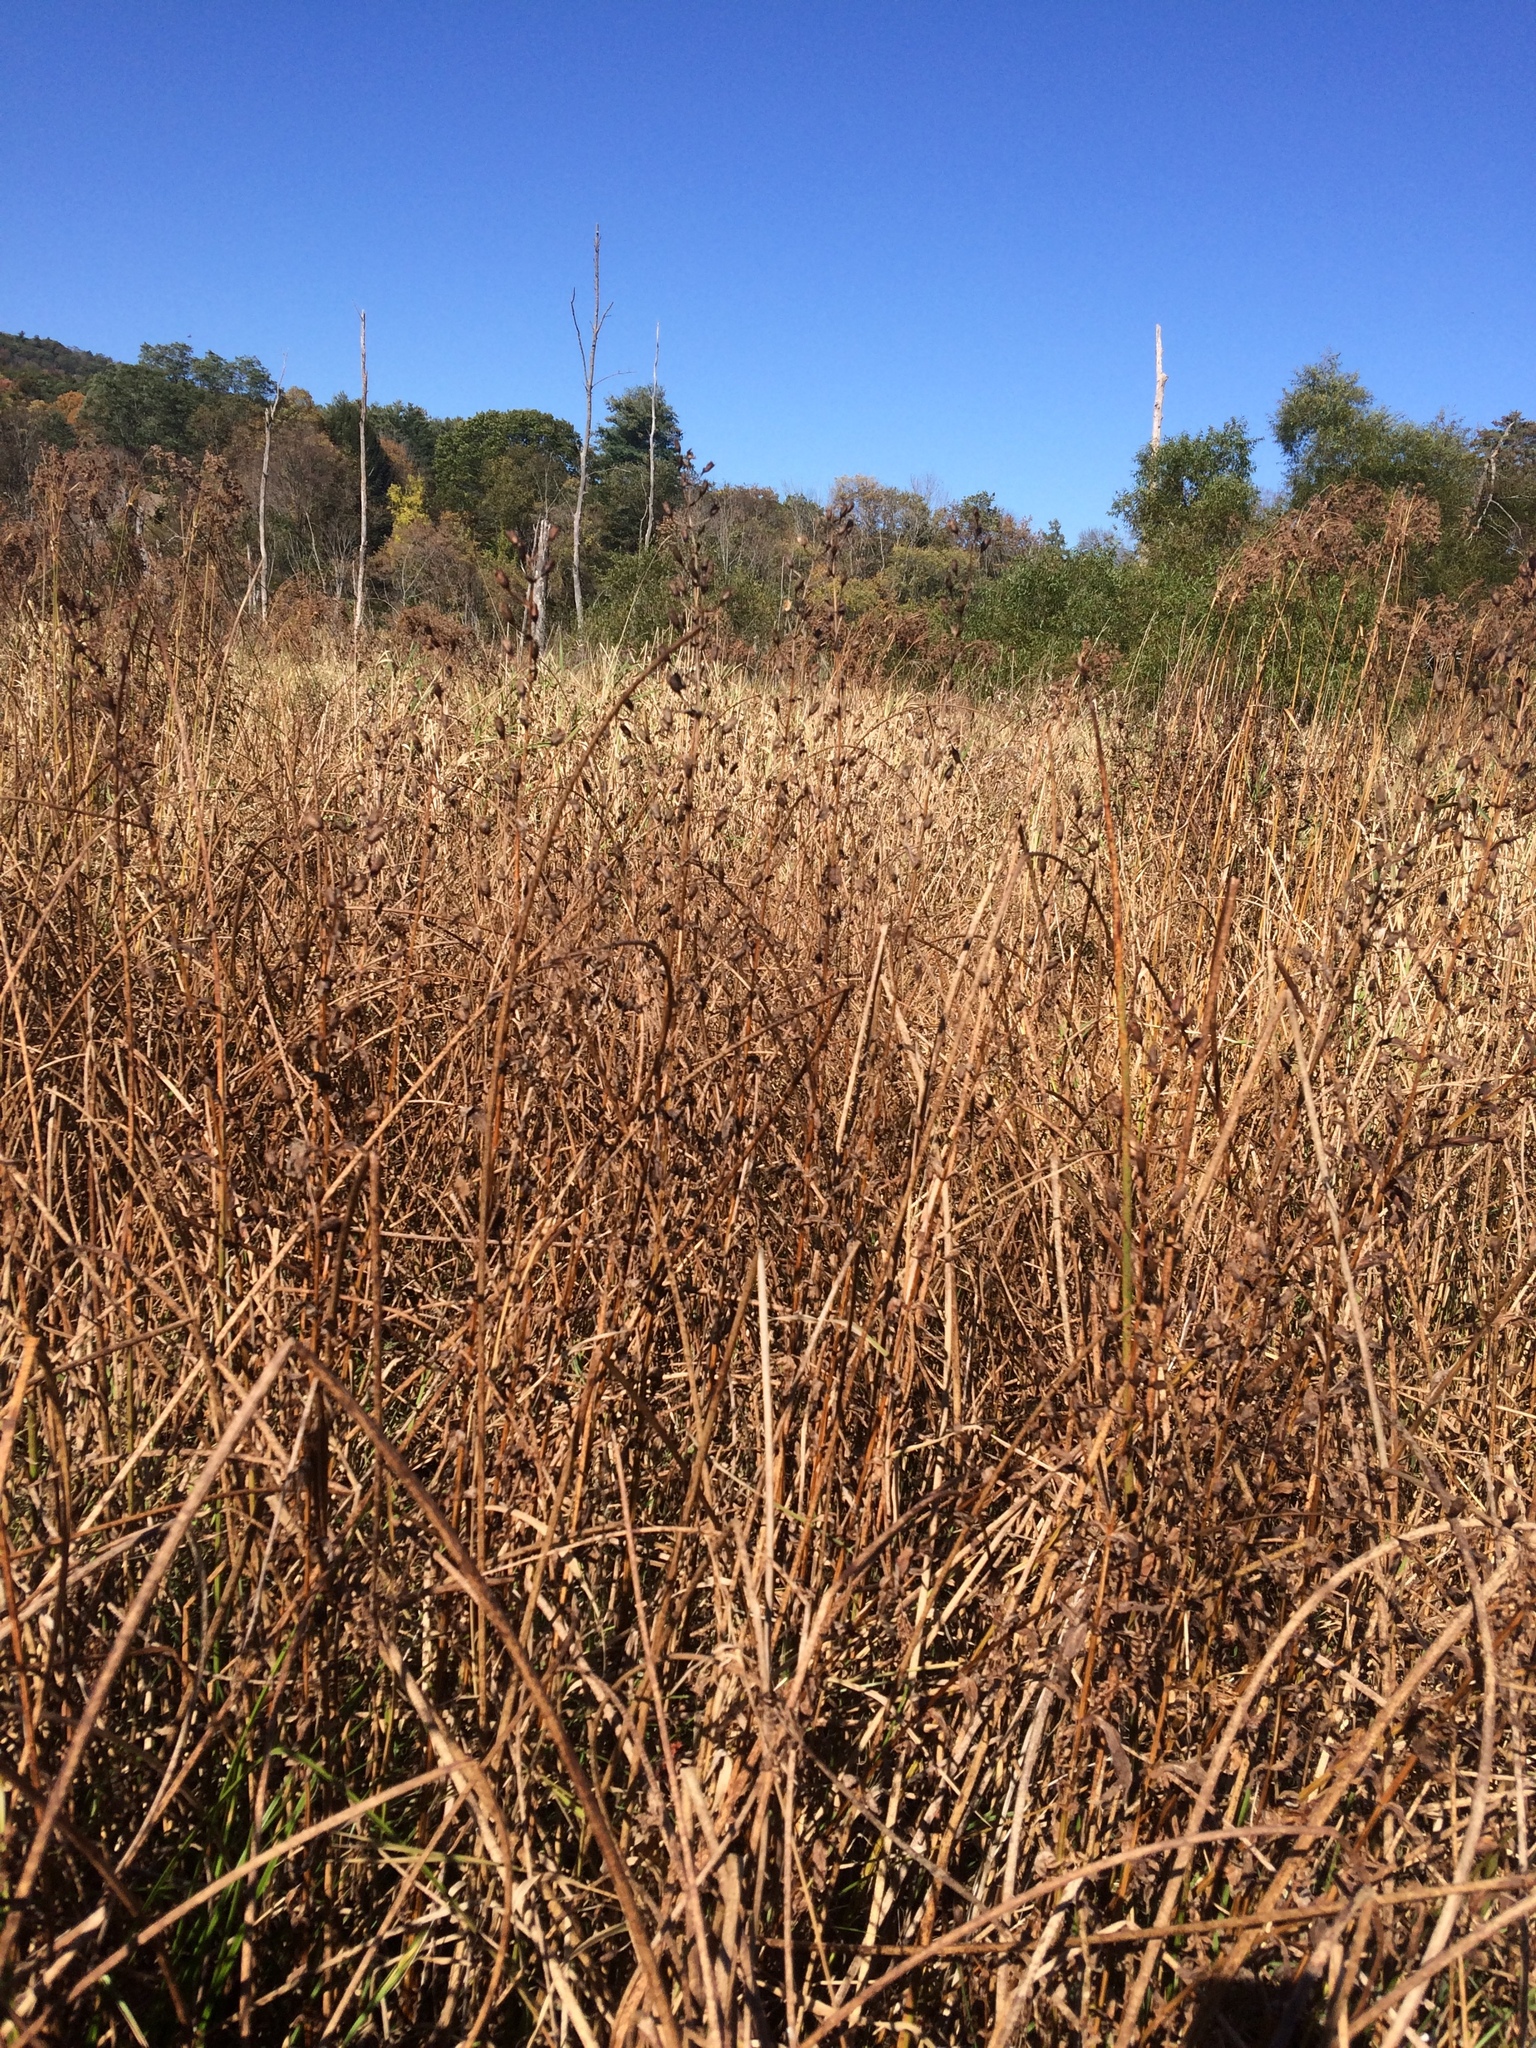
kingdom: Plantae
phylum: Tracheophyta
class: Magnoliopsida
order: Lamiales
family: Phrymaceae
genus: Mimulus
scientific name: Mimulus ringens
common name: Allegheny monkeyflower
